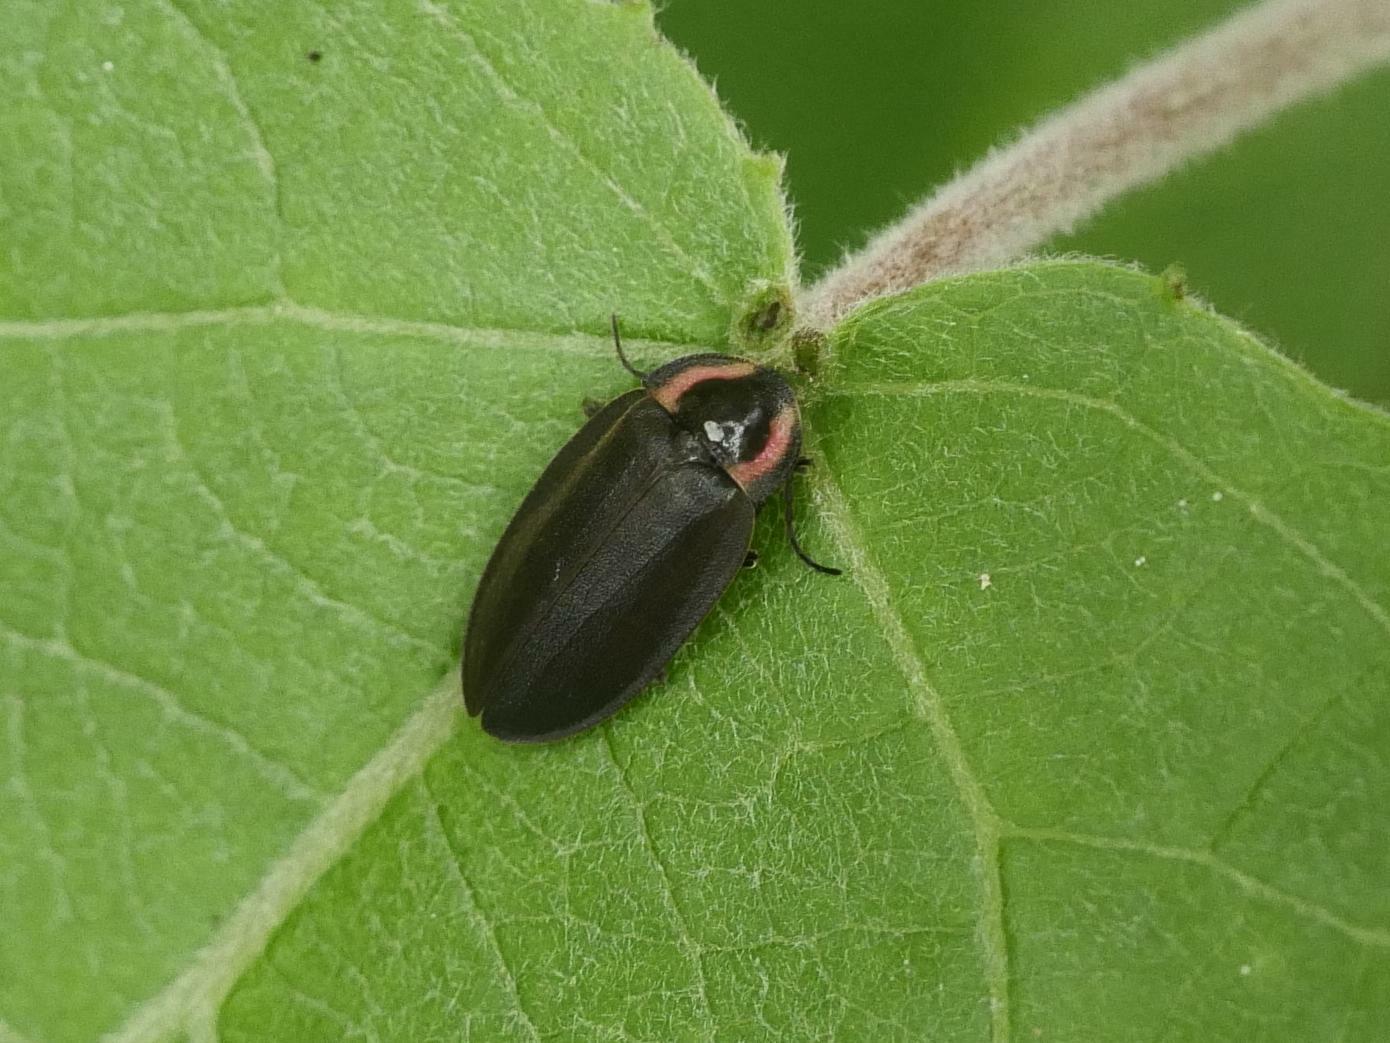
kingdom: Animalia
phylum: Arthropoda
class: Insecta
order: Coleoptera
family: Lampyridae
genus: Photinus
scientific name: Photinus corrusca
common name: Winter firefly
